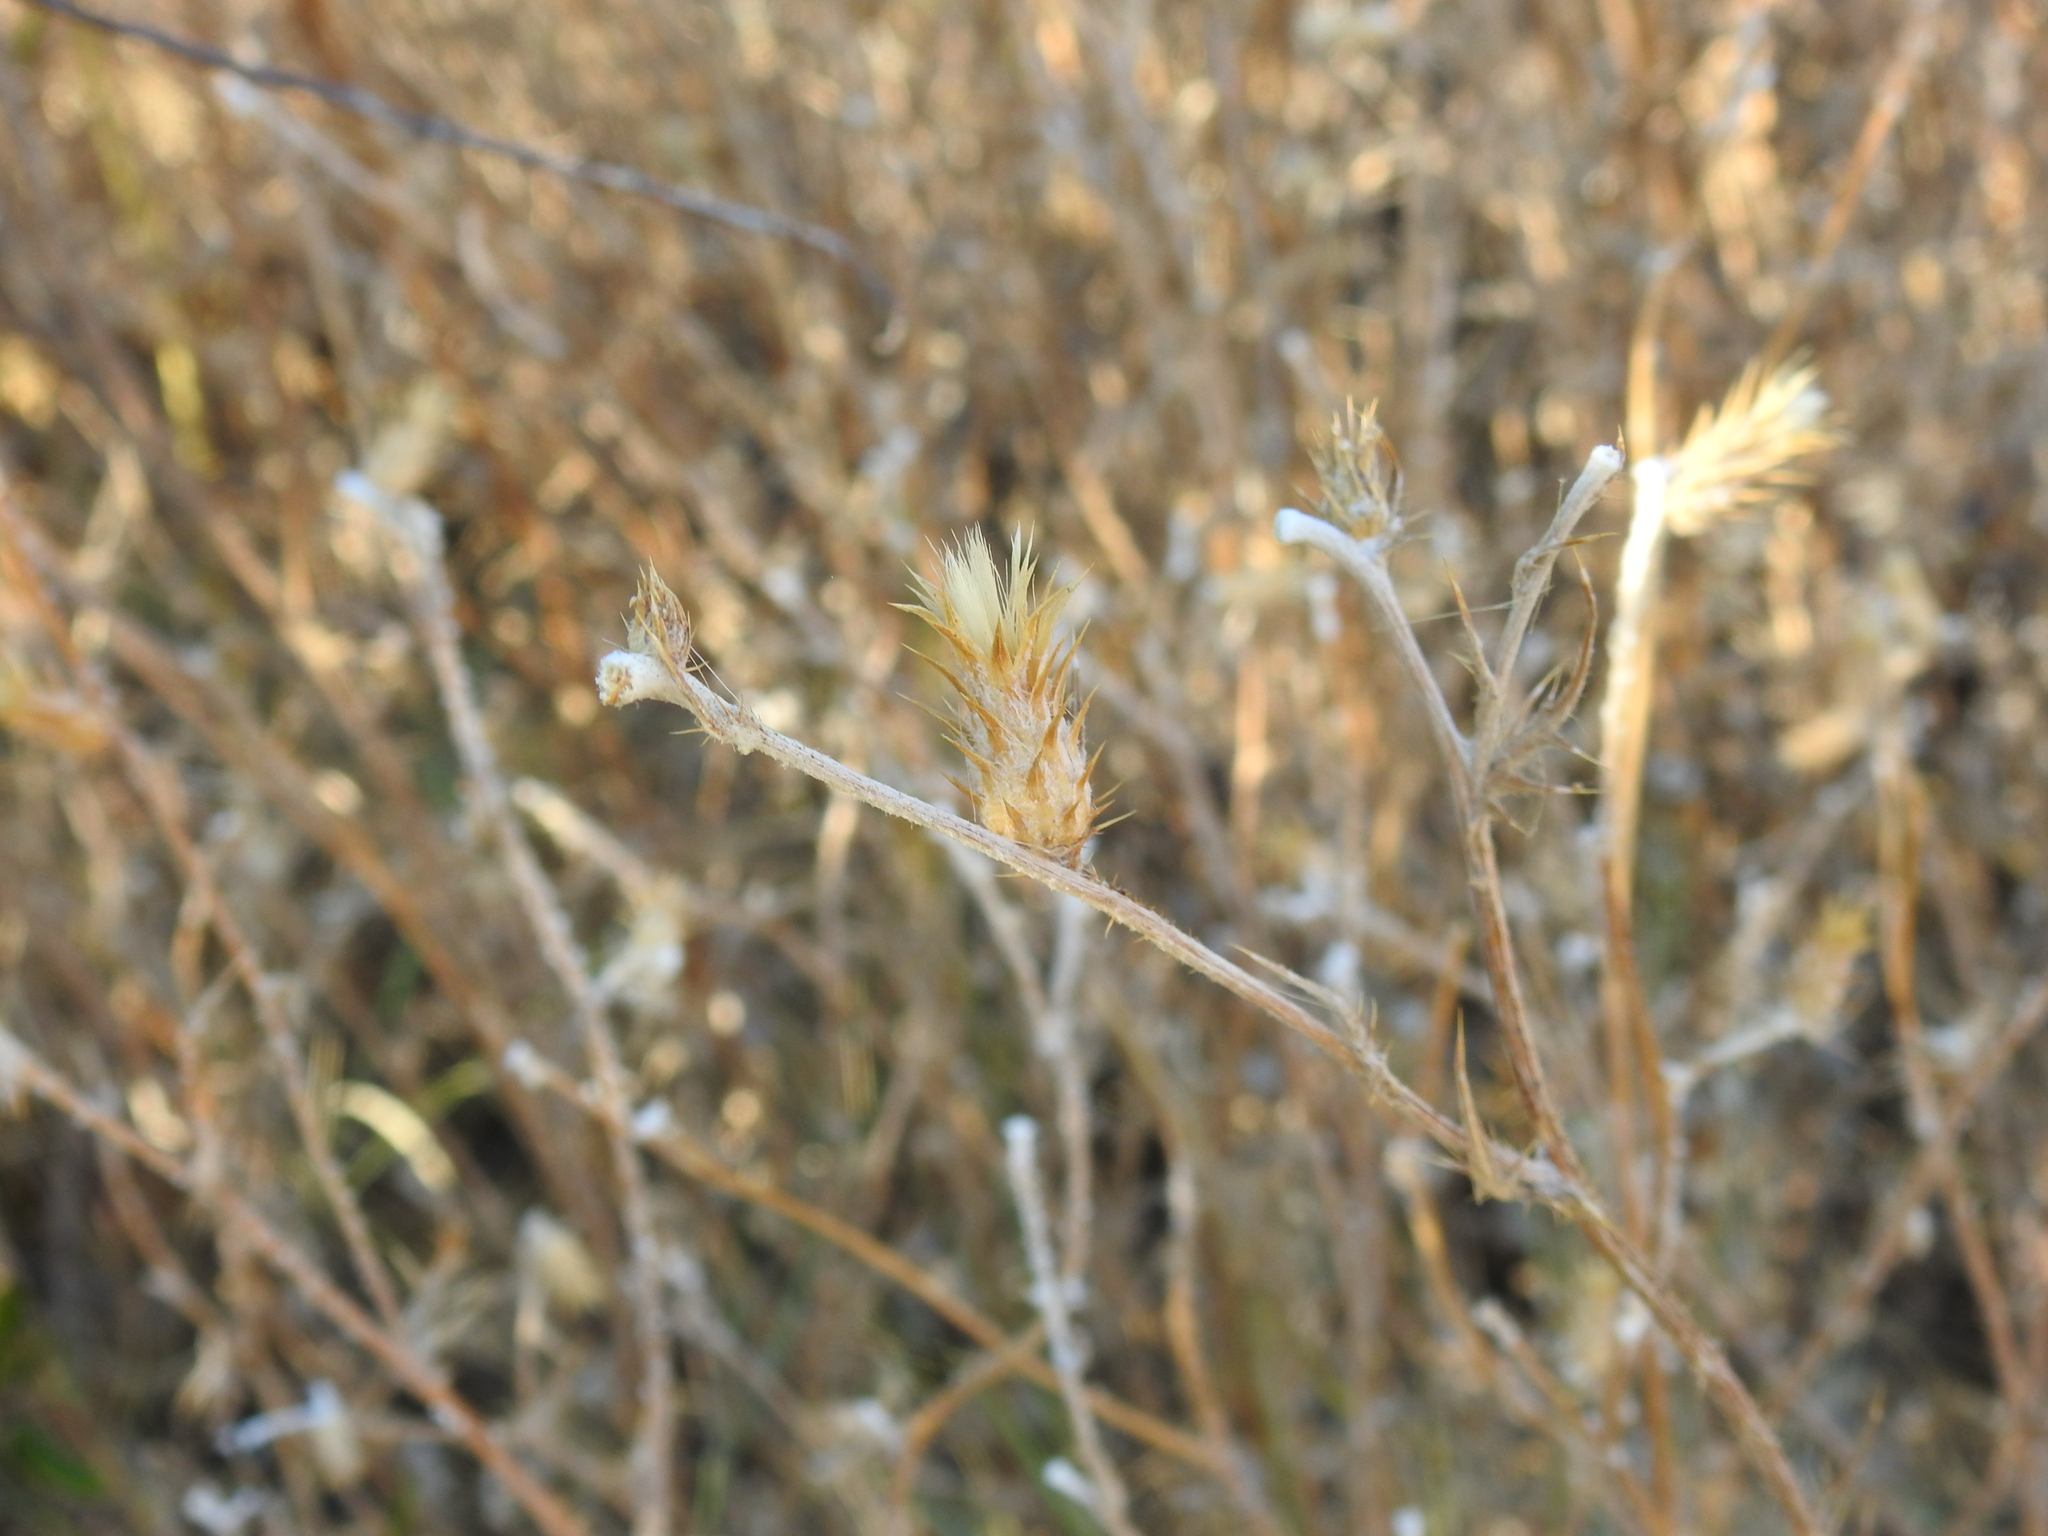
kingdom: Plantae
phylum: Tracheophyta
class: Magnoliopsida
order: Asterales
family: Asteraceae
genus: Carduus
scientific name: Carduus pycnocephalus
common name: Plymouth thistle
